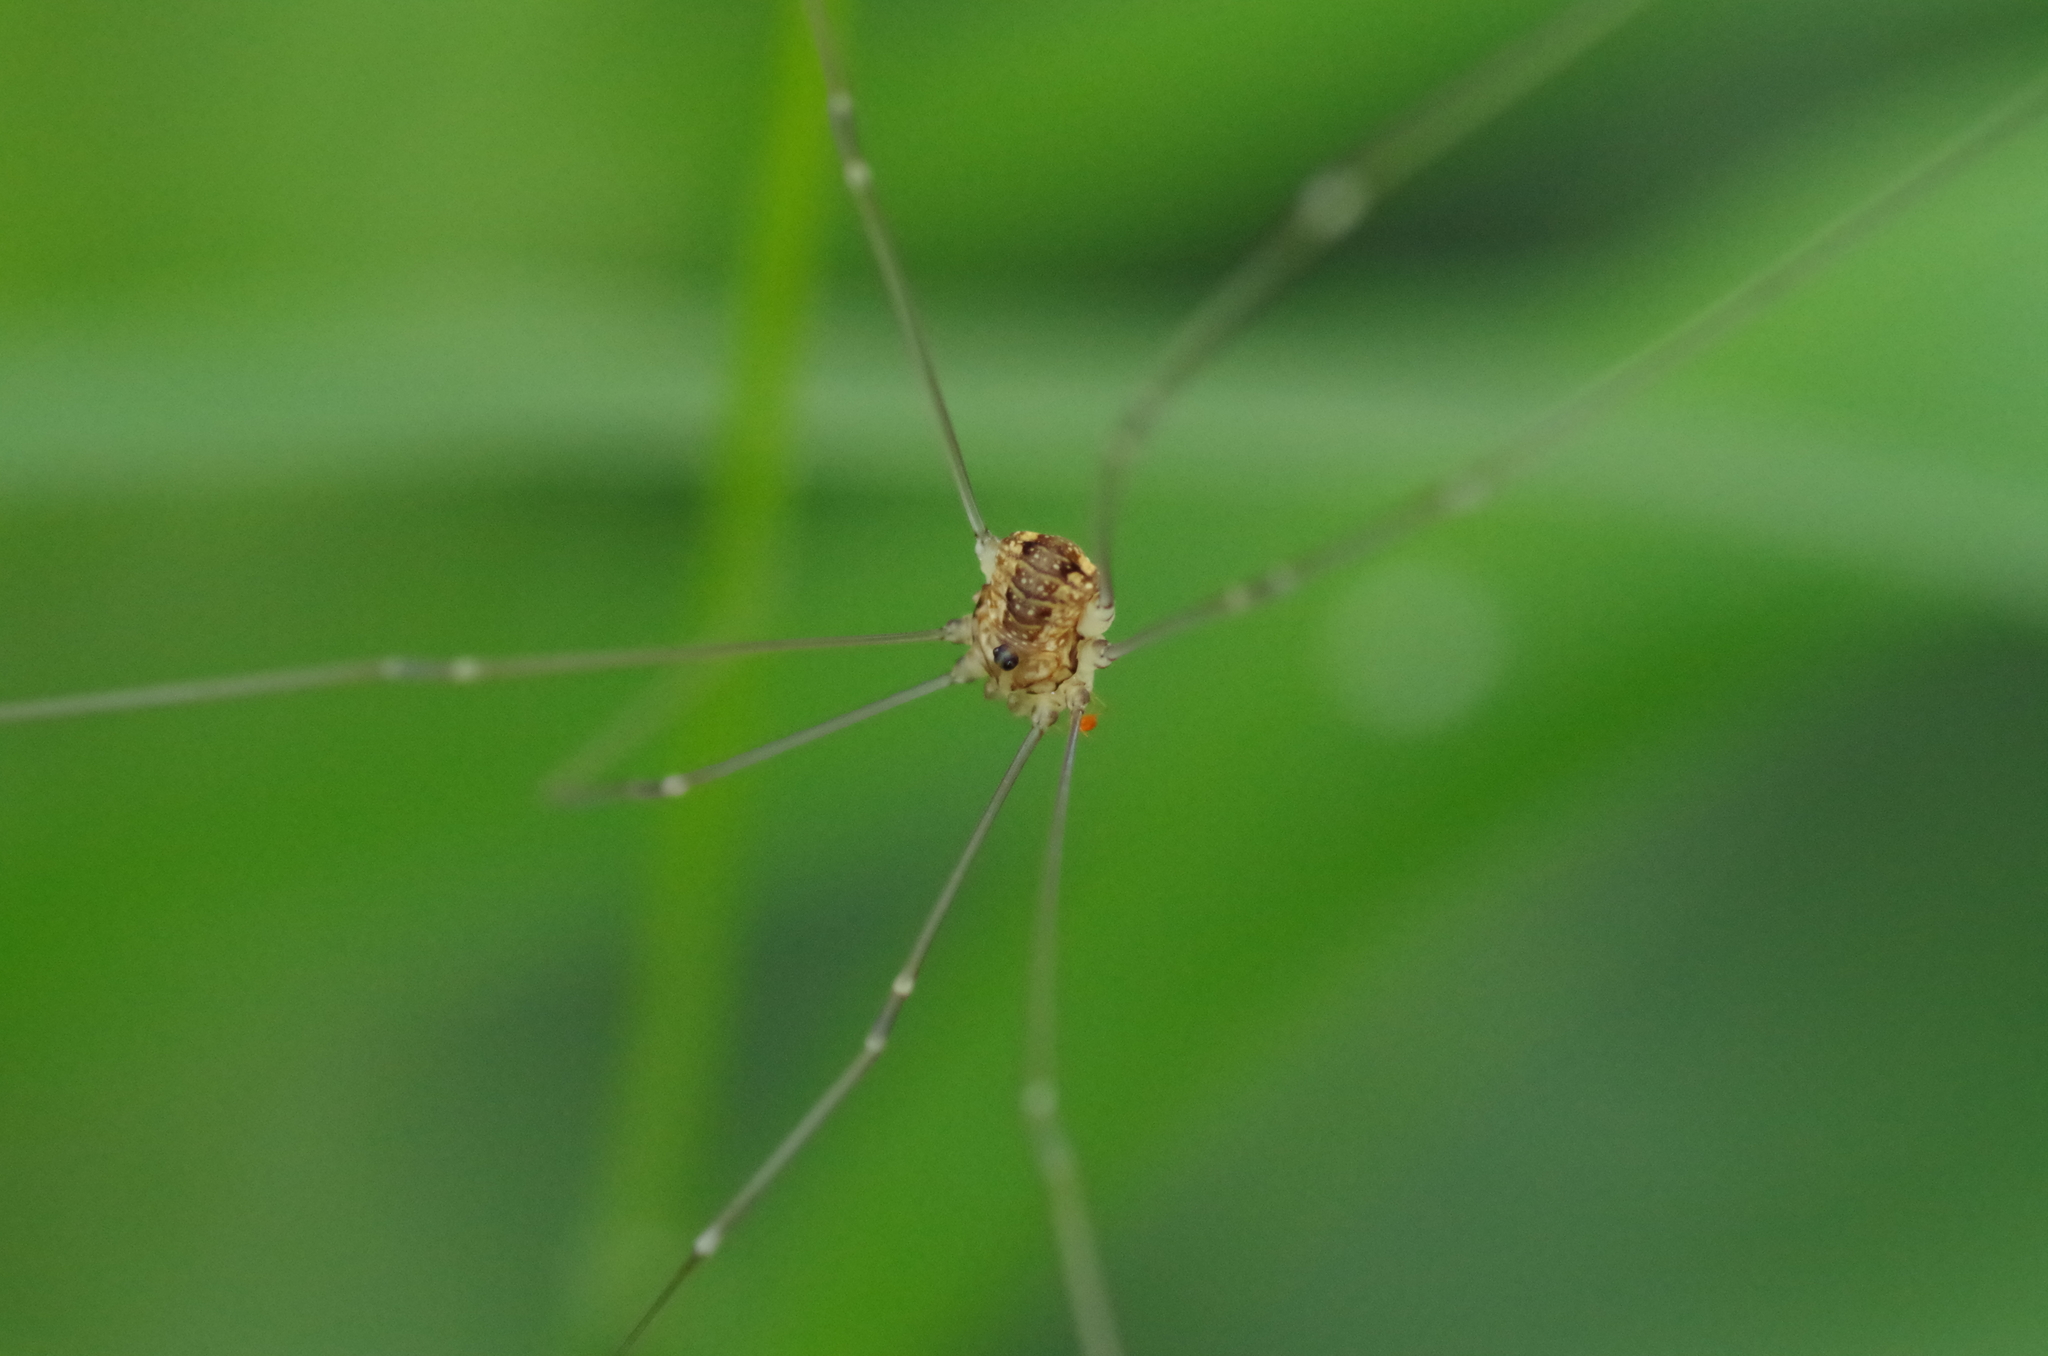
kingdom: Animalia
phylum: Arthropoda
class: Arachnida
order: Opiliones
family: Sclerosomatidae
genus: Leiobunum
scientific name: Leiobunum rotundum
